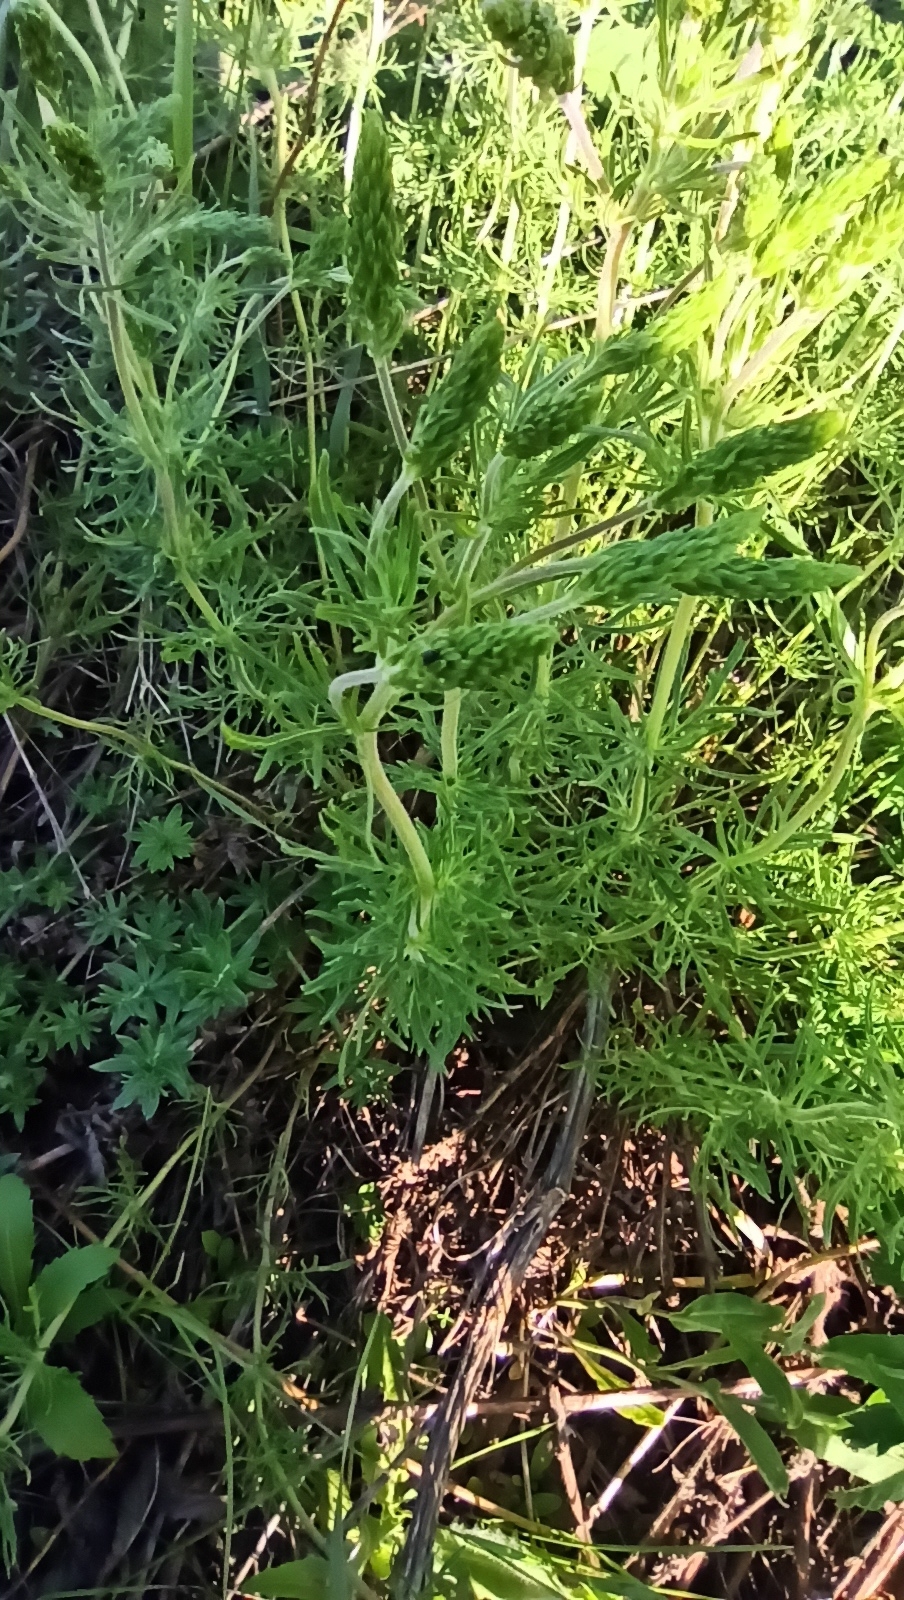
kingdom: Plantae
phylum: Tracheophyta
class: Magnoliopsida
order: Lamiales
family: Plantaginaceae
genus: Veronica
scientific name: Veronica austriaca
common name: Large speedwell
